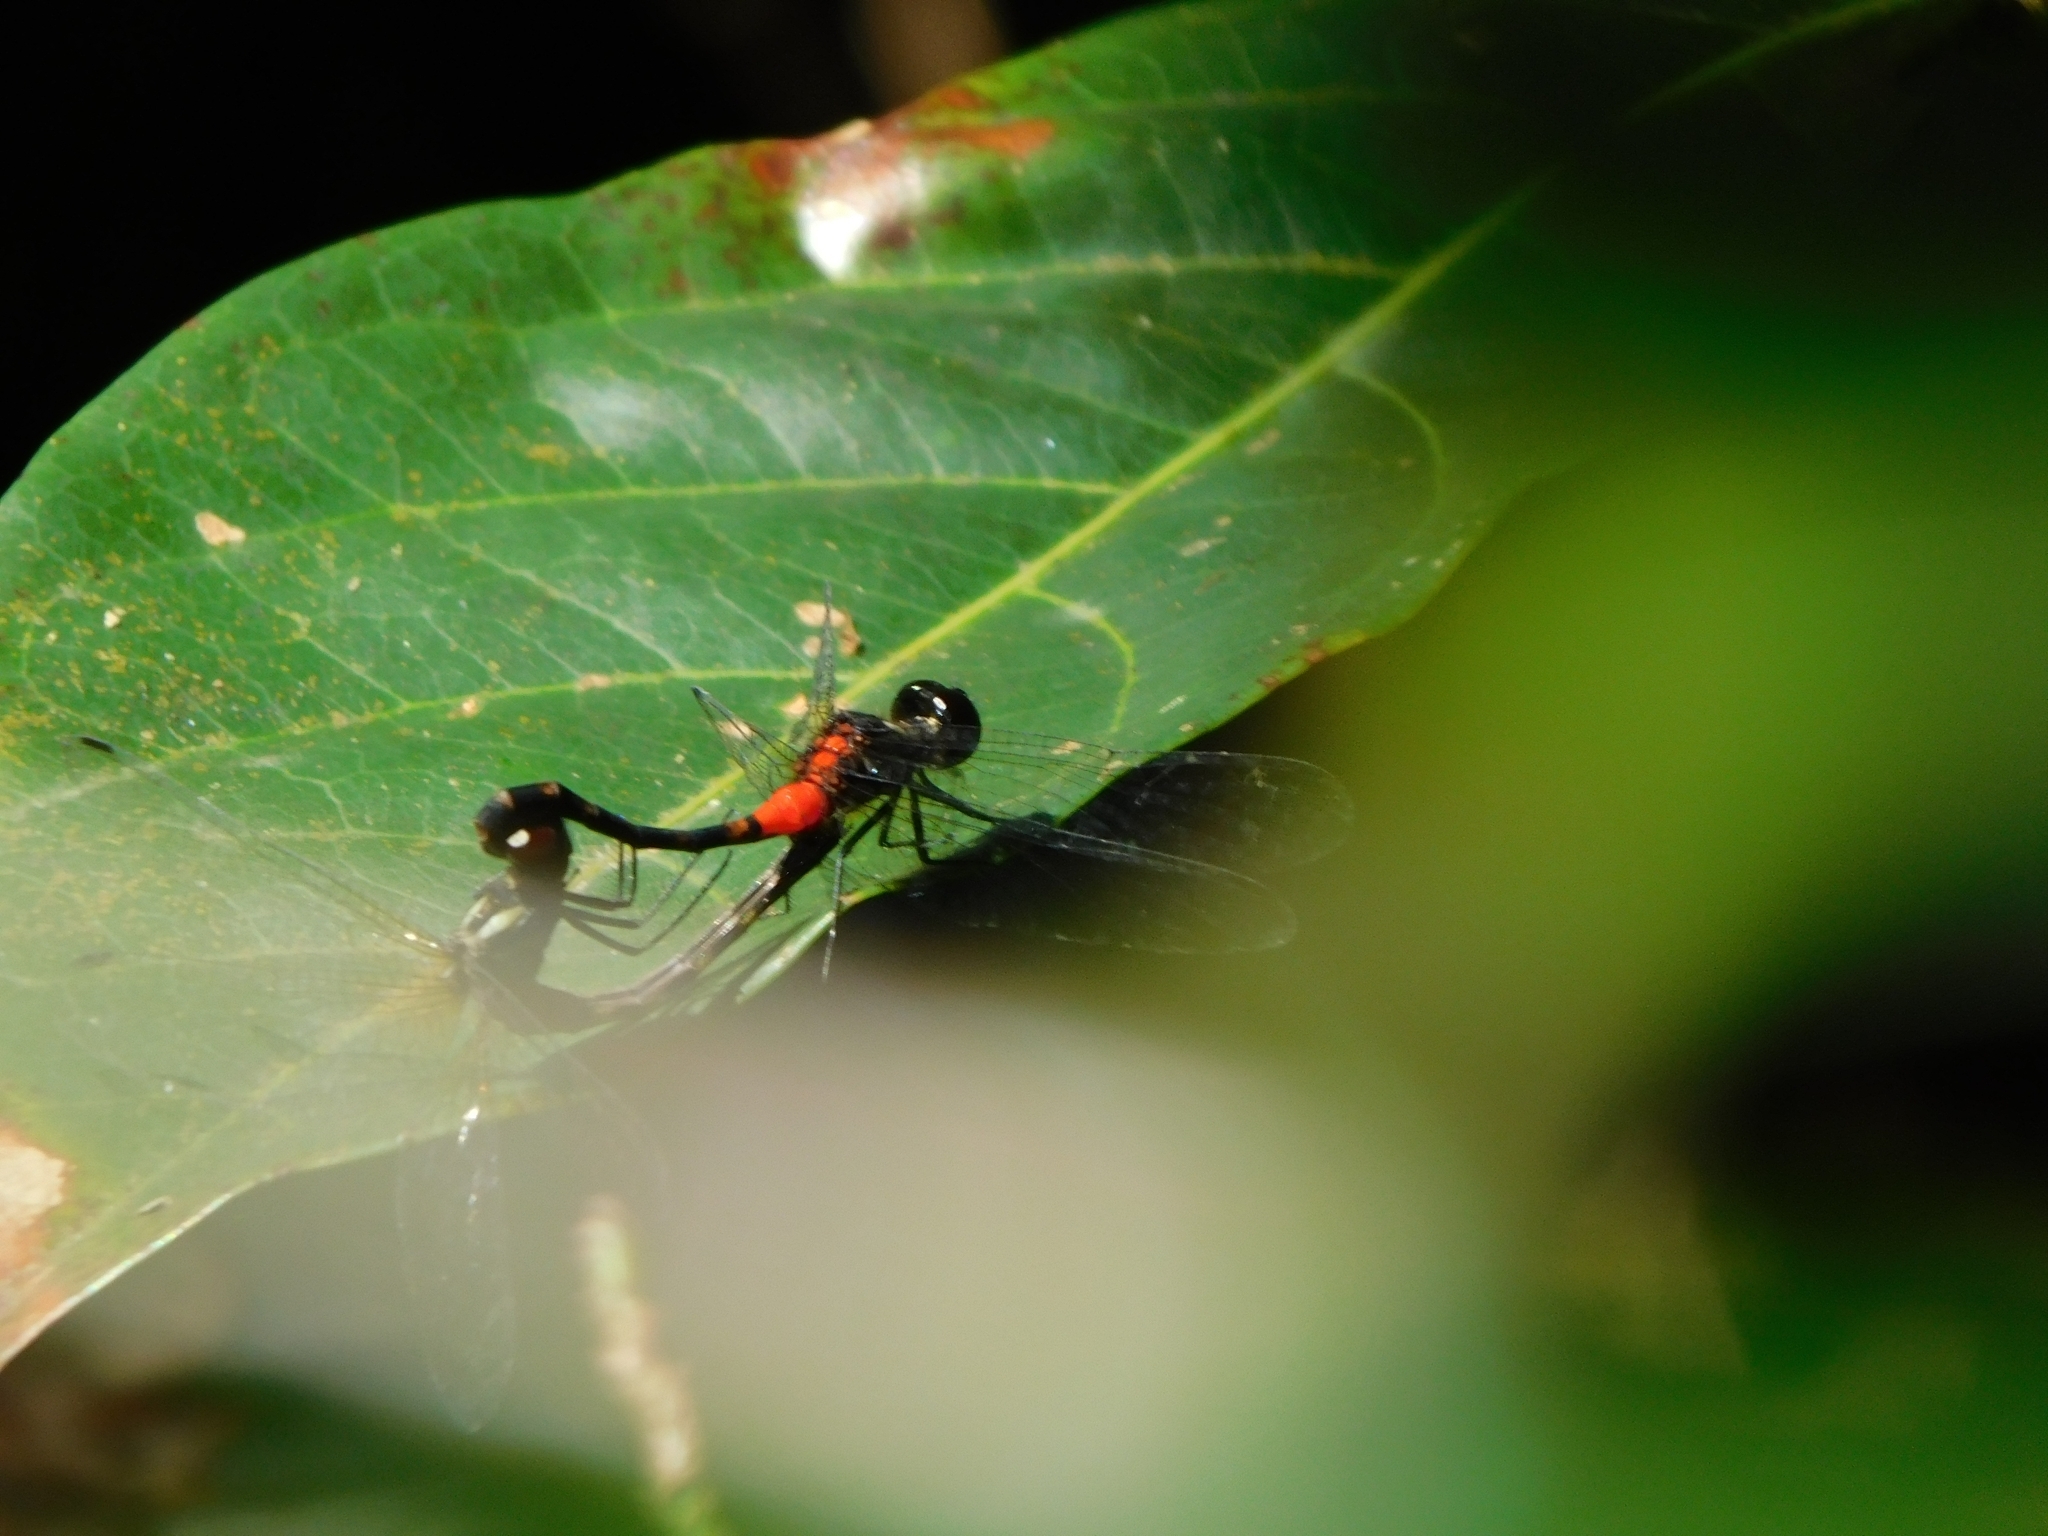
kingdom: Animalia
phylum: Arthropoda
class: Insecta
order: Odonata
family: Libellulidae
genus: Epithemis
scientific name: Epithemis mariae
